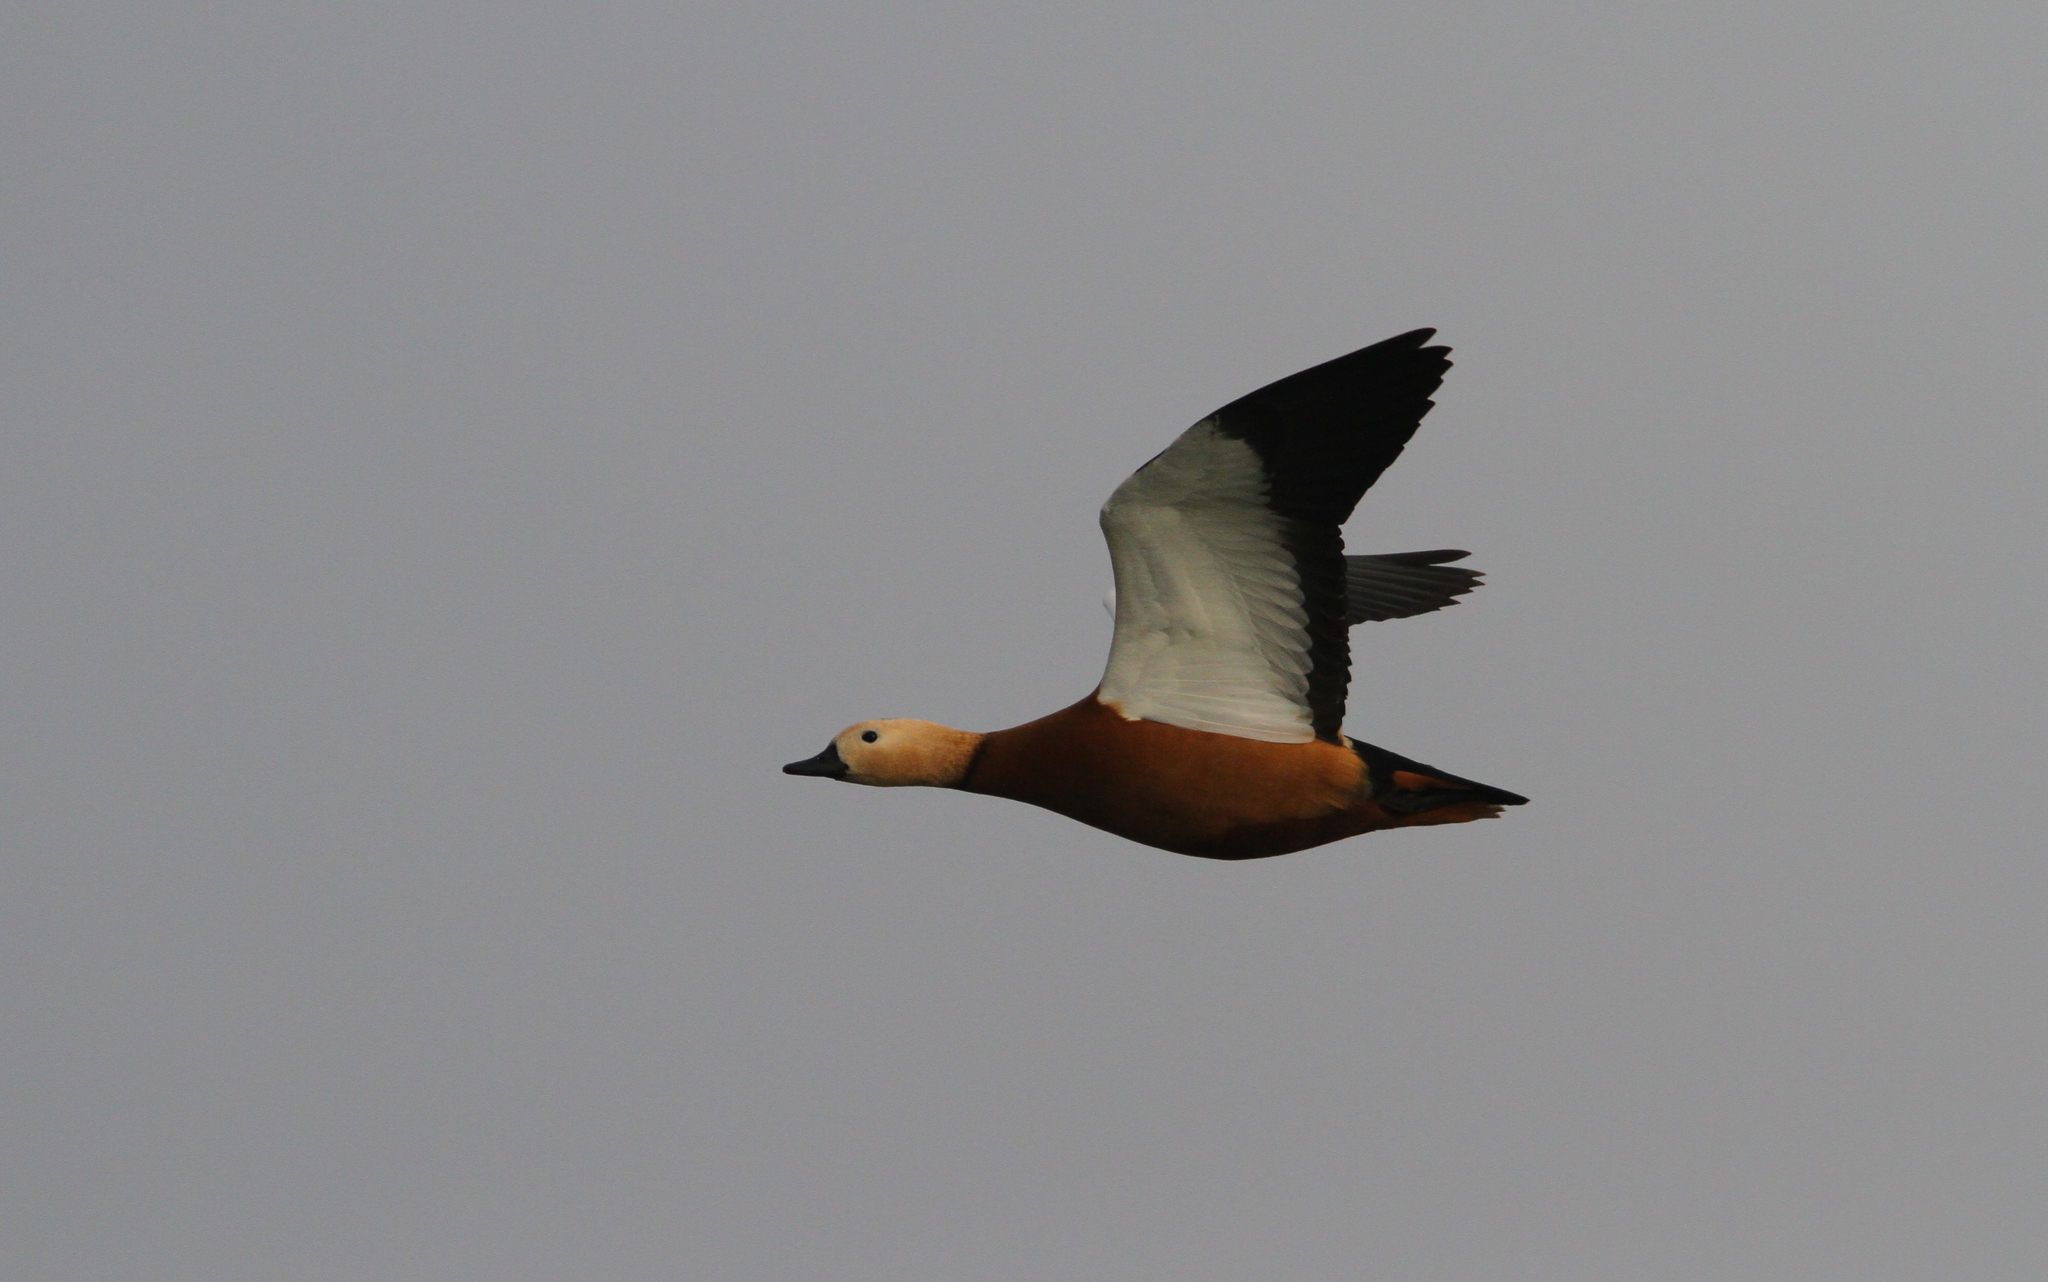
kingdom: Animalia
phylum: Chordata
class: Aves
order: Anseriformes
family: Anatidae
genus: Tadorna
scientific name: Tadorna ferruginea
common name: Ruddy shelduck
